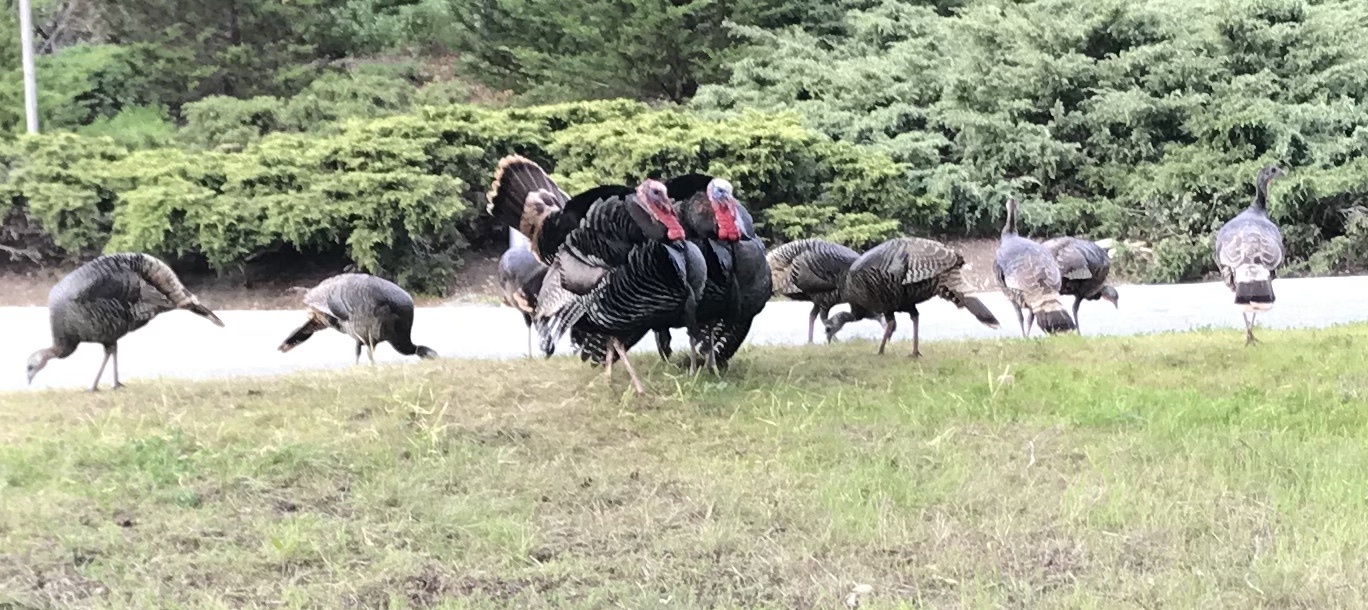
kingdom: Animalia
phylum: Chordata
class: Aves
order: Galliformes
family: Phasianidae
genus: Meleagris
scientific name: Meleagris gallopavo
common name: Wild turkey
